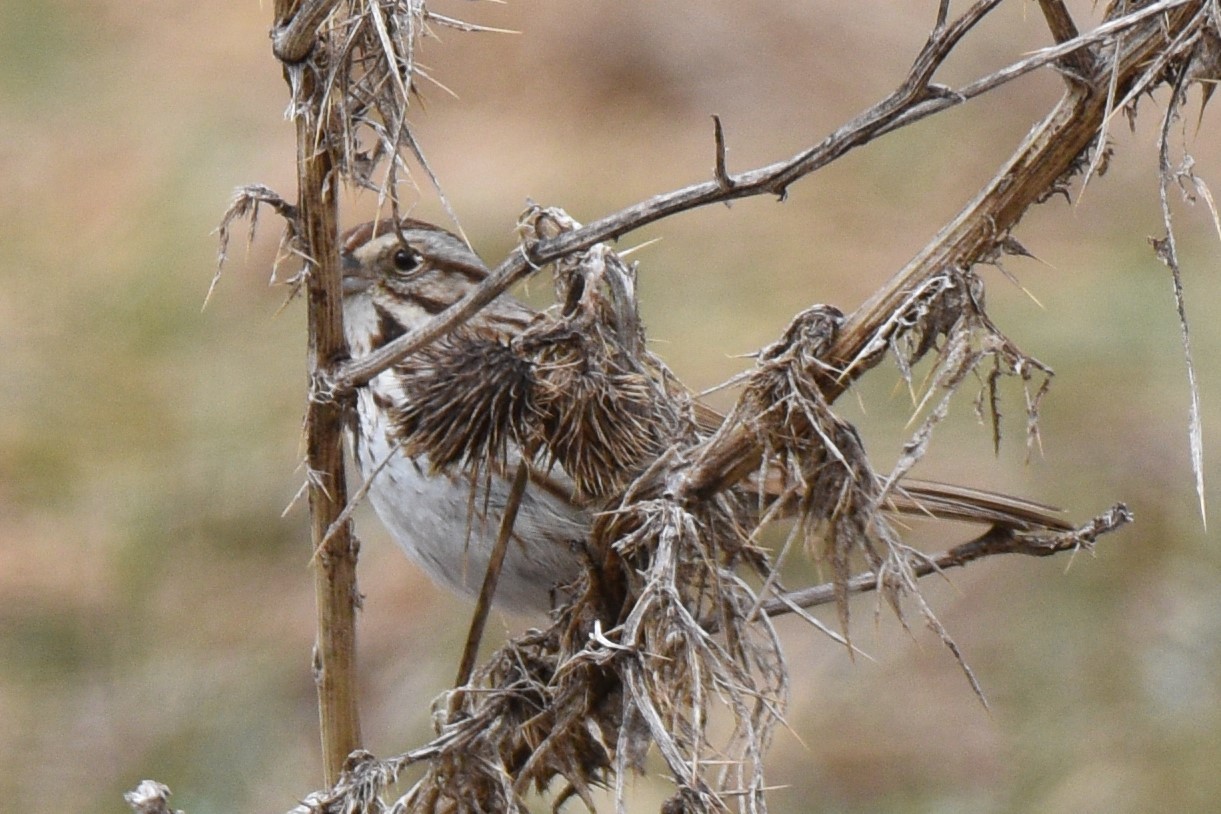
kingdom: Animalia
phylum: Chordata
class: Aves
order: Passeriformes
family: Passerellidae
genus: Melospiza
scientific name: Melospiza melodia
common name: Song sparrow
